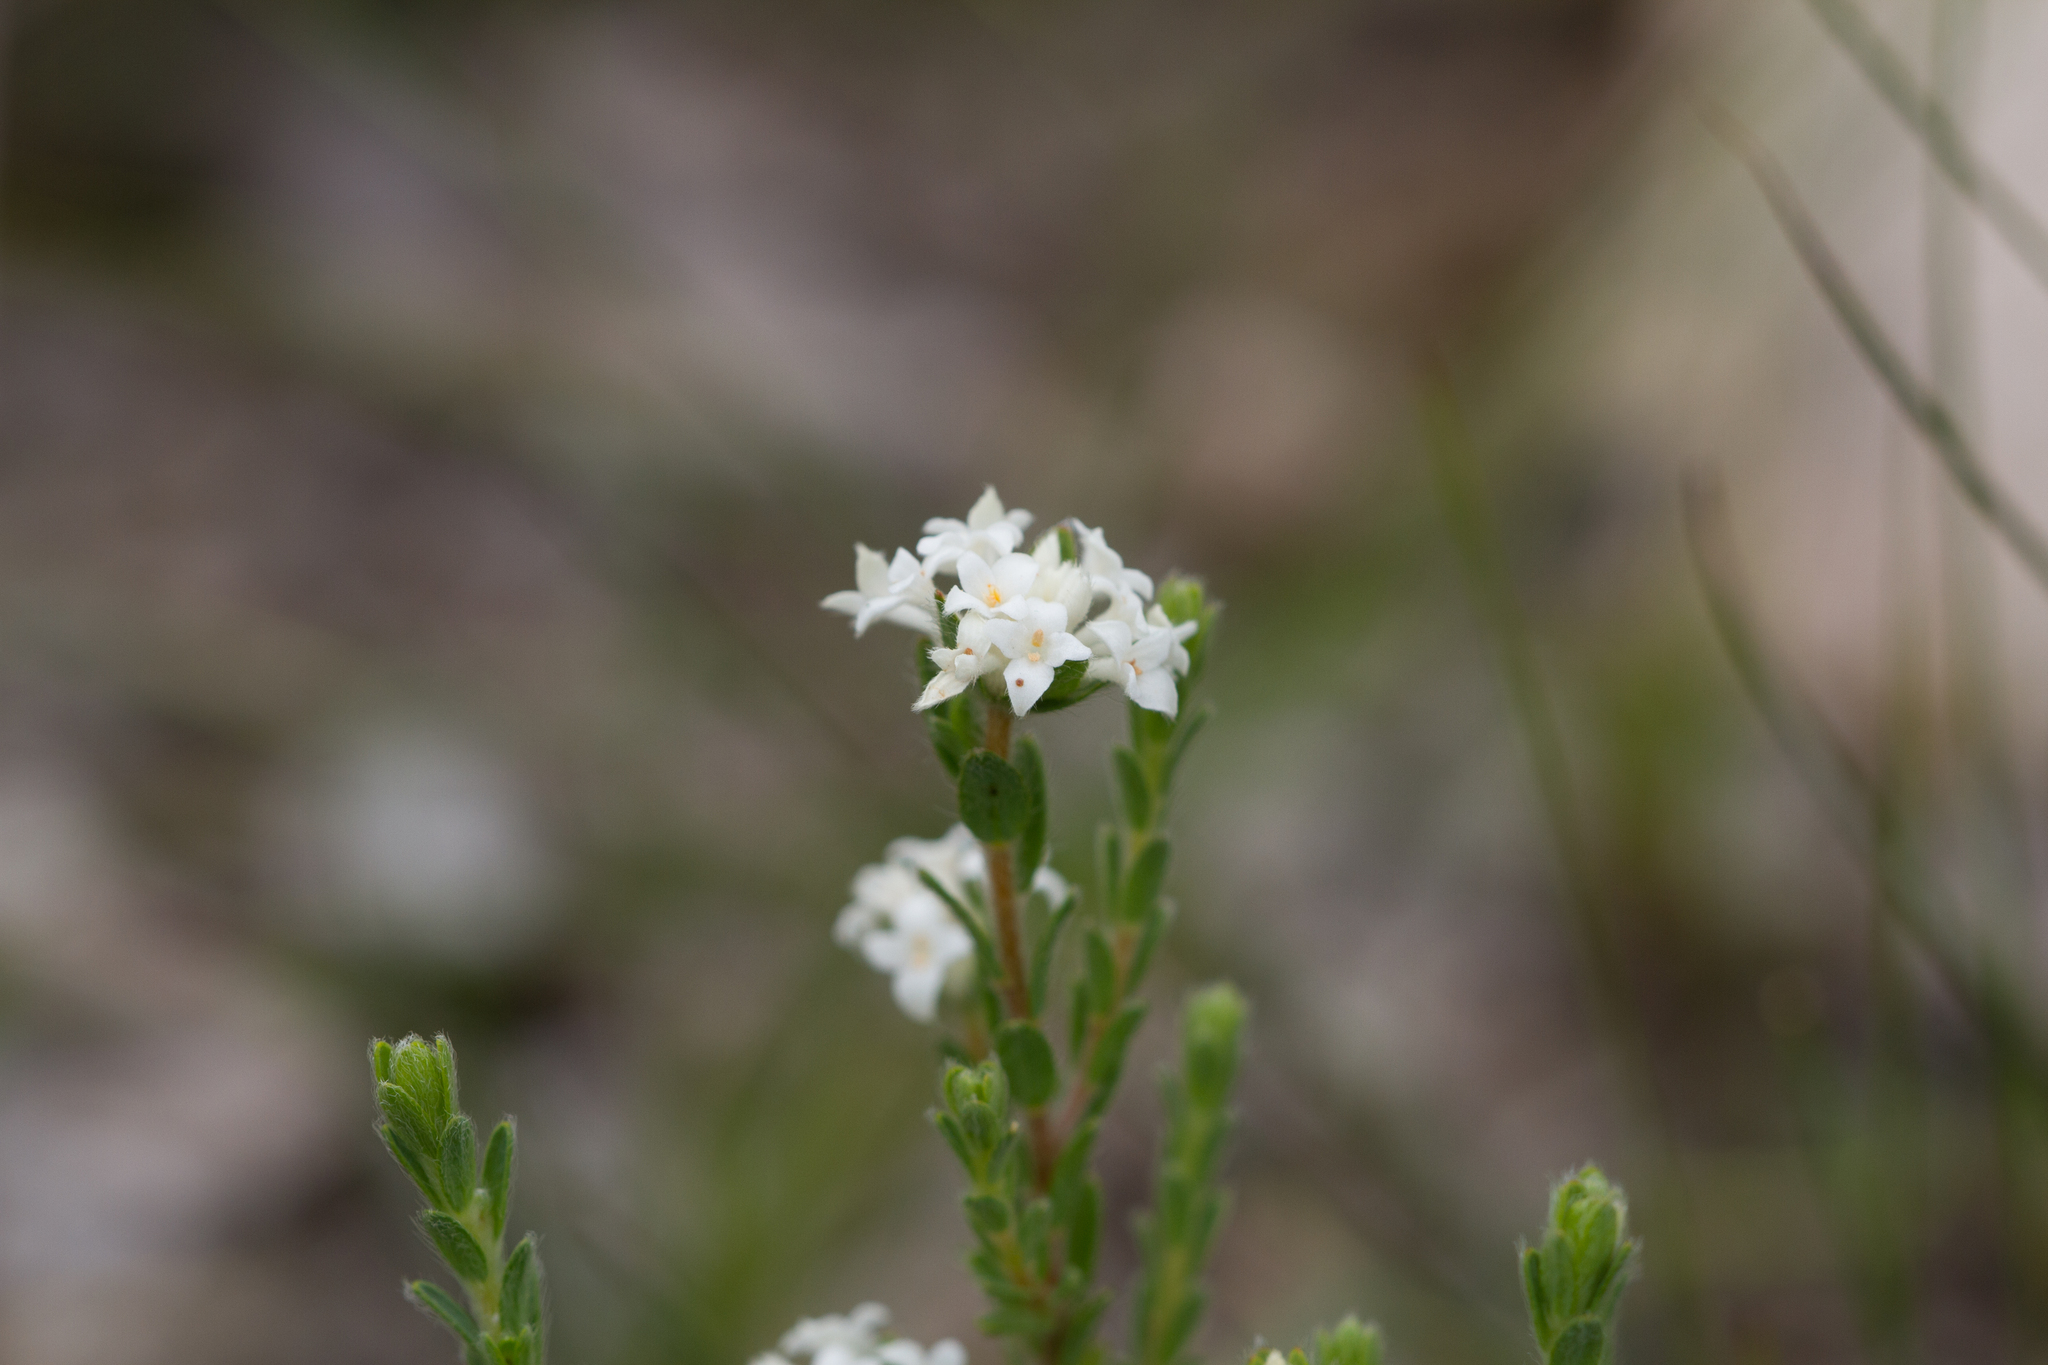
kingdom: Plantae
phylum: Tracheophyta
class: Magnoliopsida
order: Malvales
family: Thymelaeaceae
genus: Pimelea
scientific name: Pimelea phylicoides
